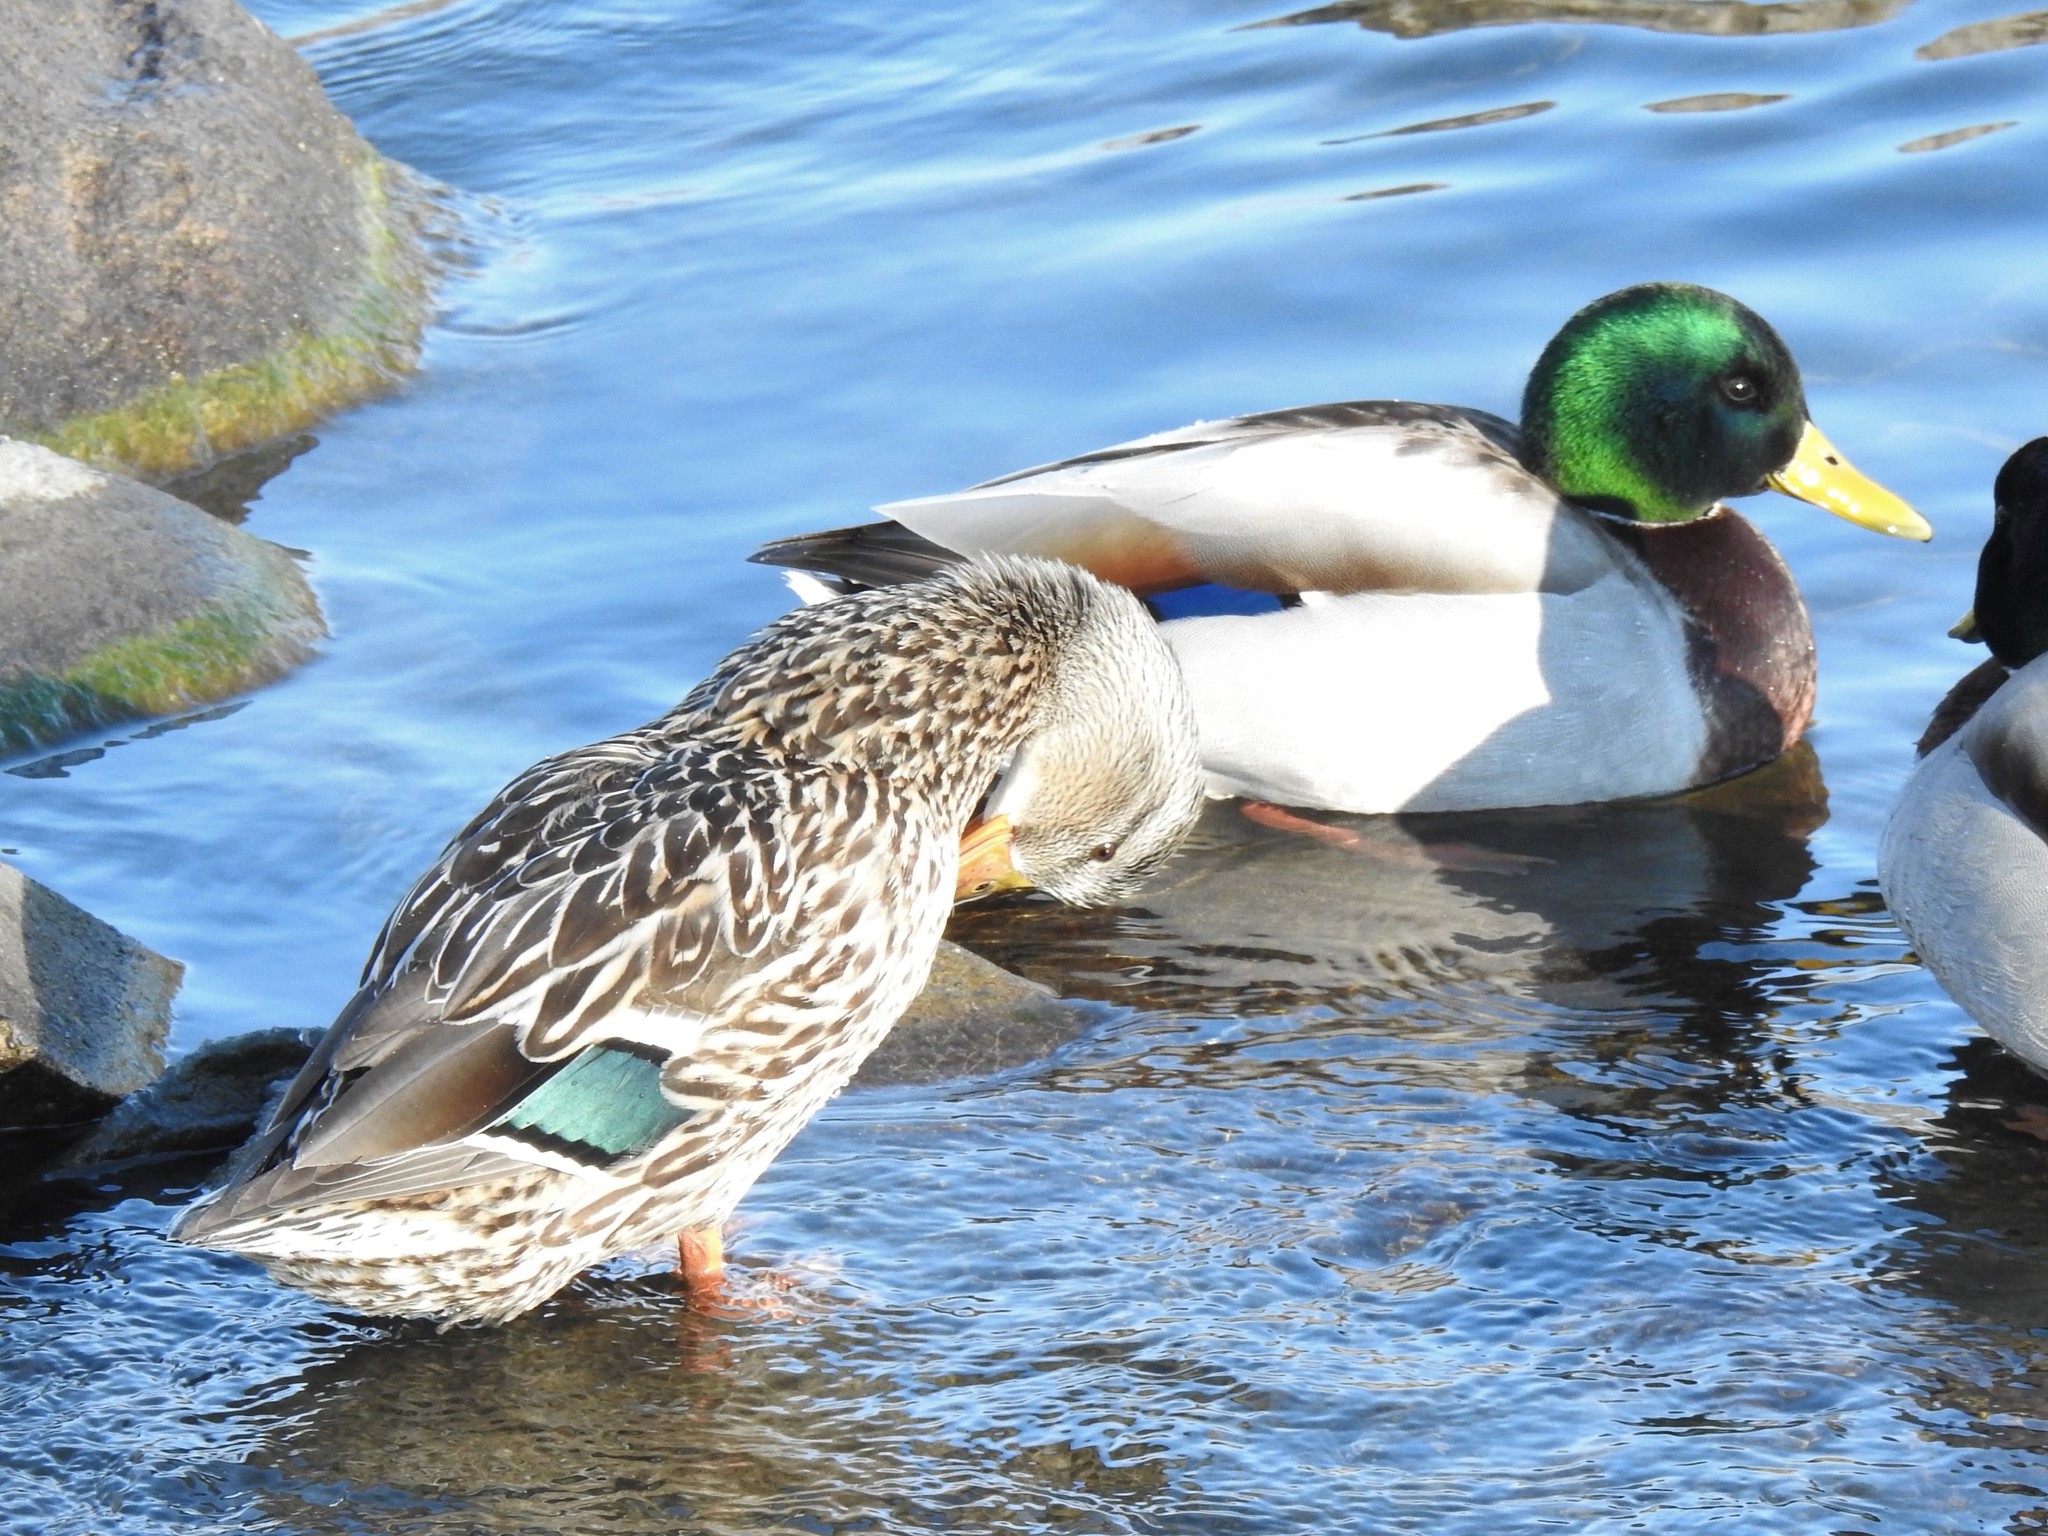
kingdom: Animalia
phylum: Chordata
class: Aves
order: Anseriformes
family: Anatidae
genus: Anas
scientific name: Anas platyrhynchos
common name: Mallard
